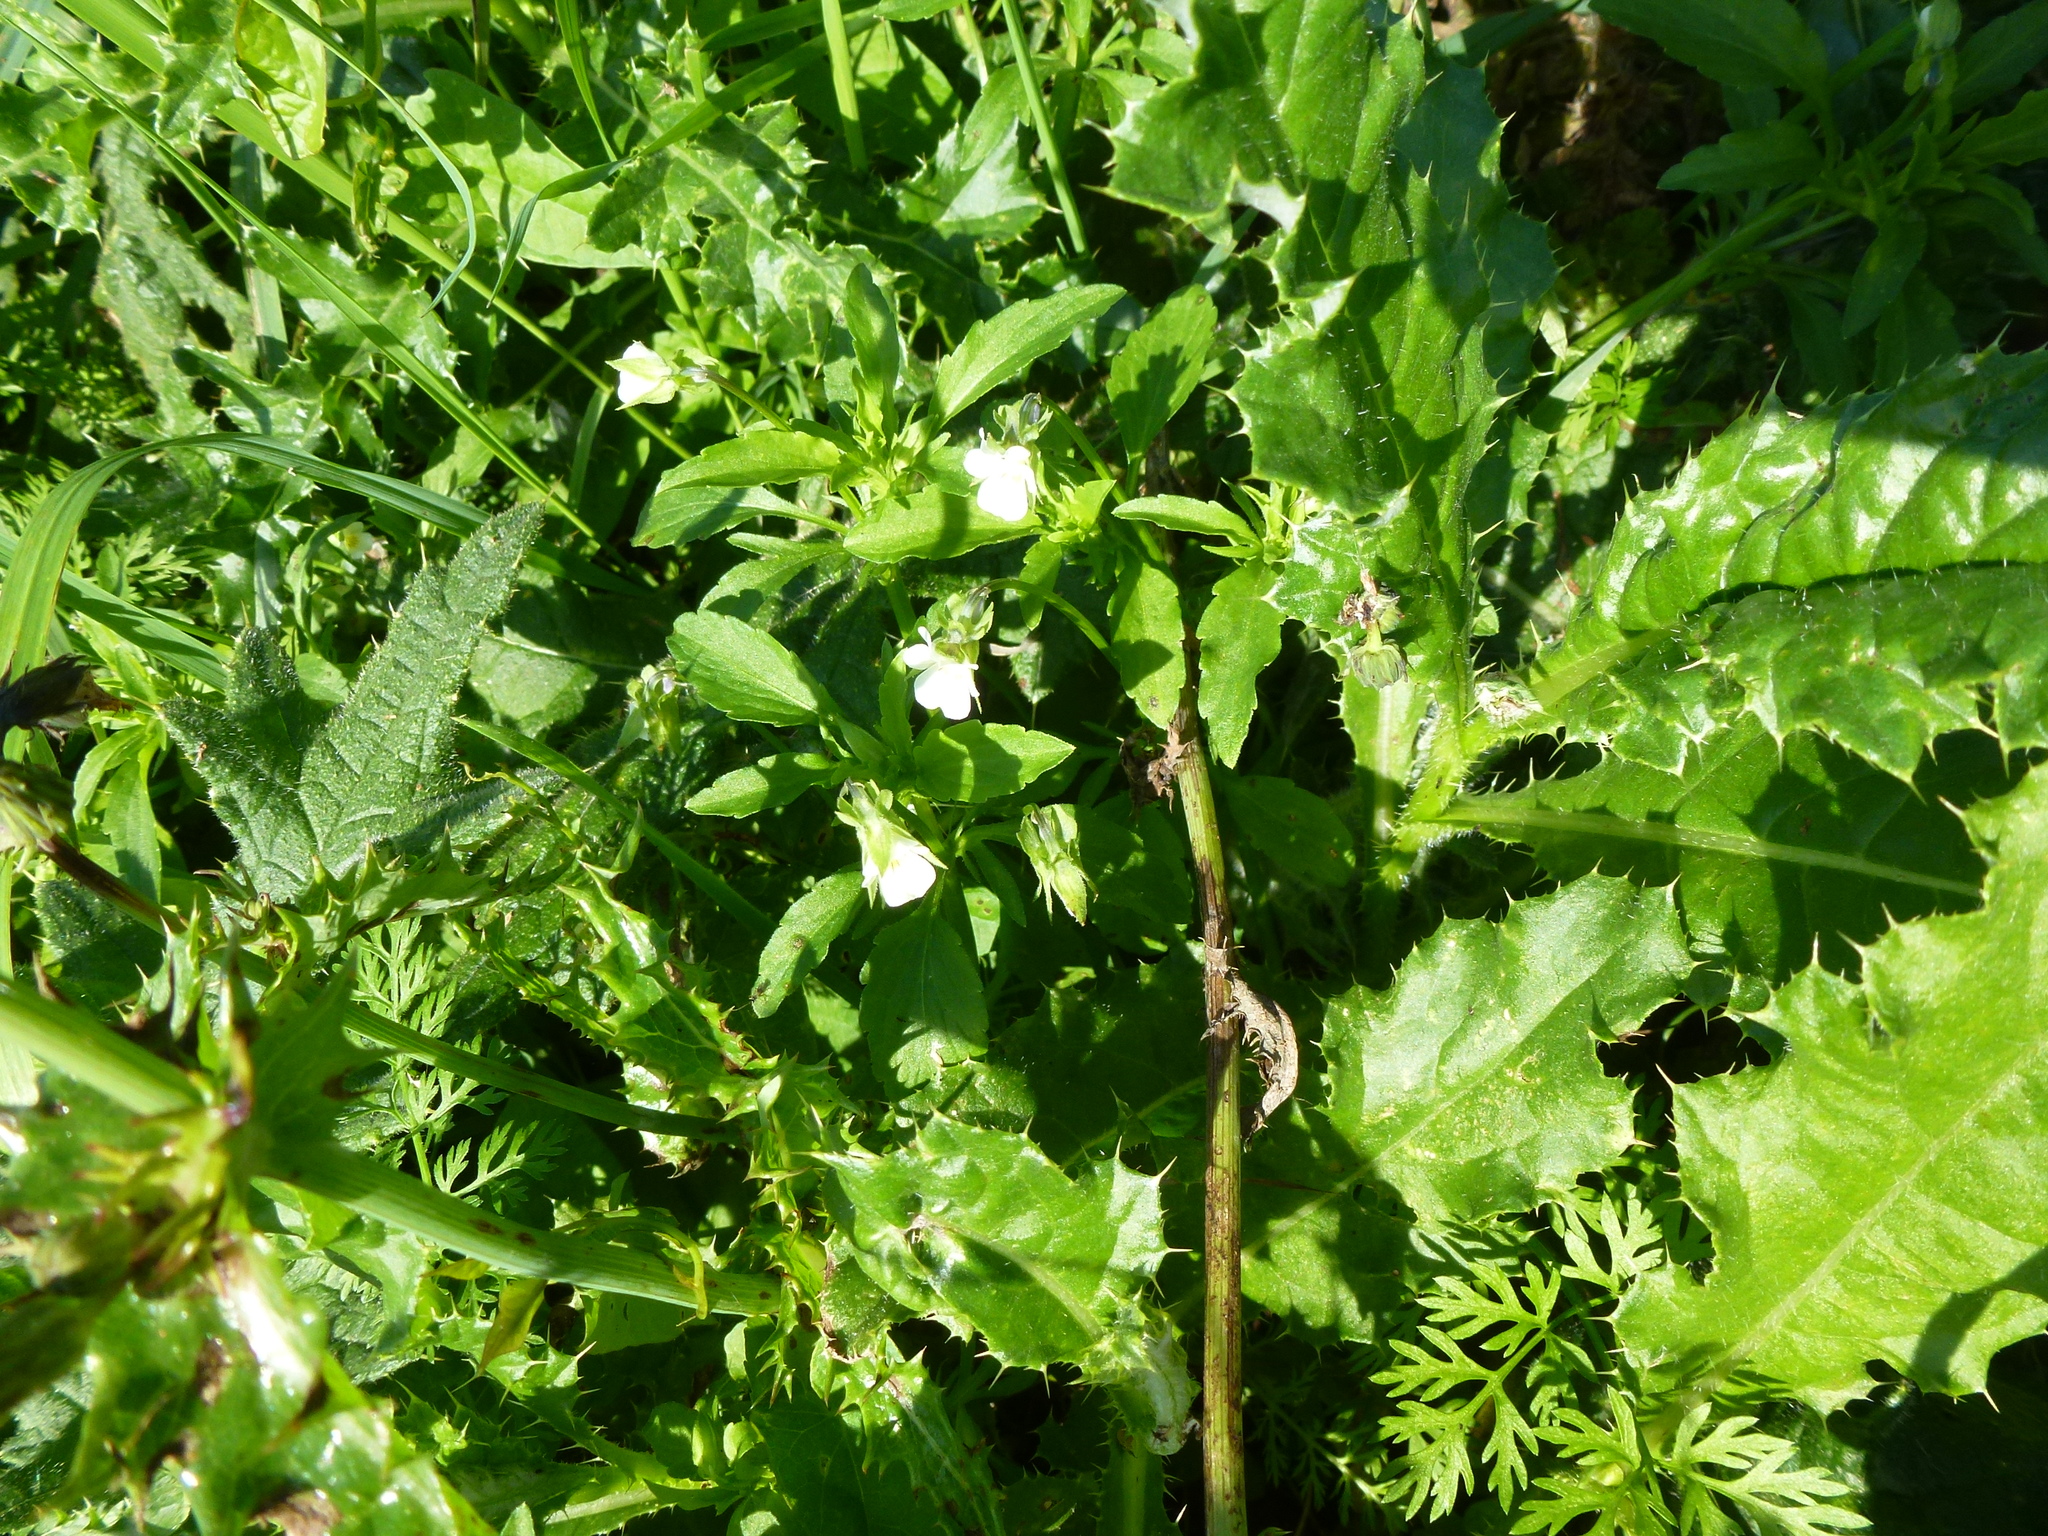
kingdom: Plantae
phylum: Tracheophyta
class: Magnoliopsida
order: Malpighiales
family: Violaceae
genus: Viola
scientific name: Viola arvensis
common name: Field pansy
